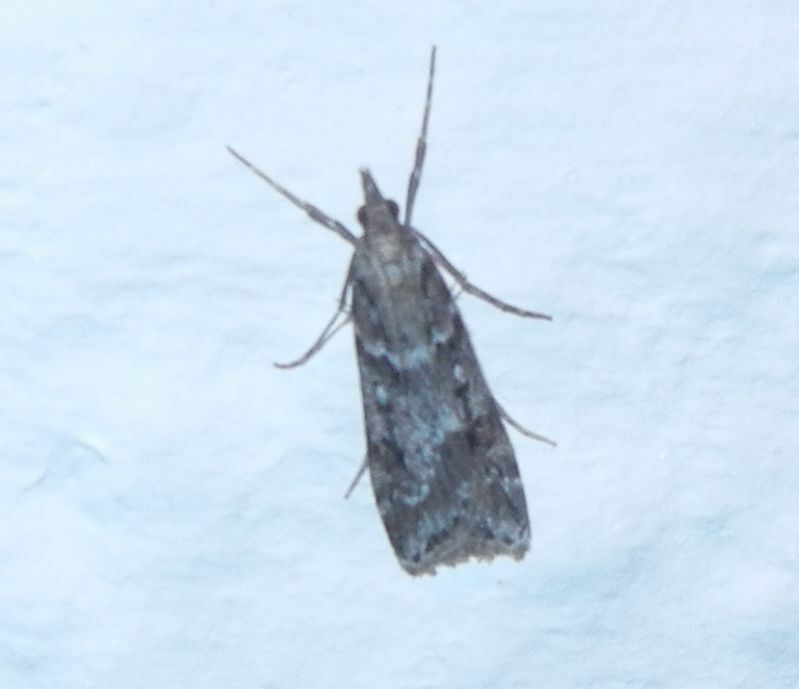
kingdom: Animalia
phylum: Arthropoda
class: Insecta
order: Lepidoptera
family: Crambidae
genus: Eudonia
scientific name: Eudonia angustea
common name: Narrow-winged grey
